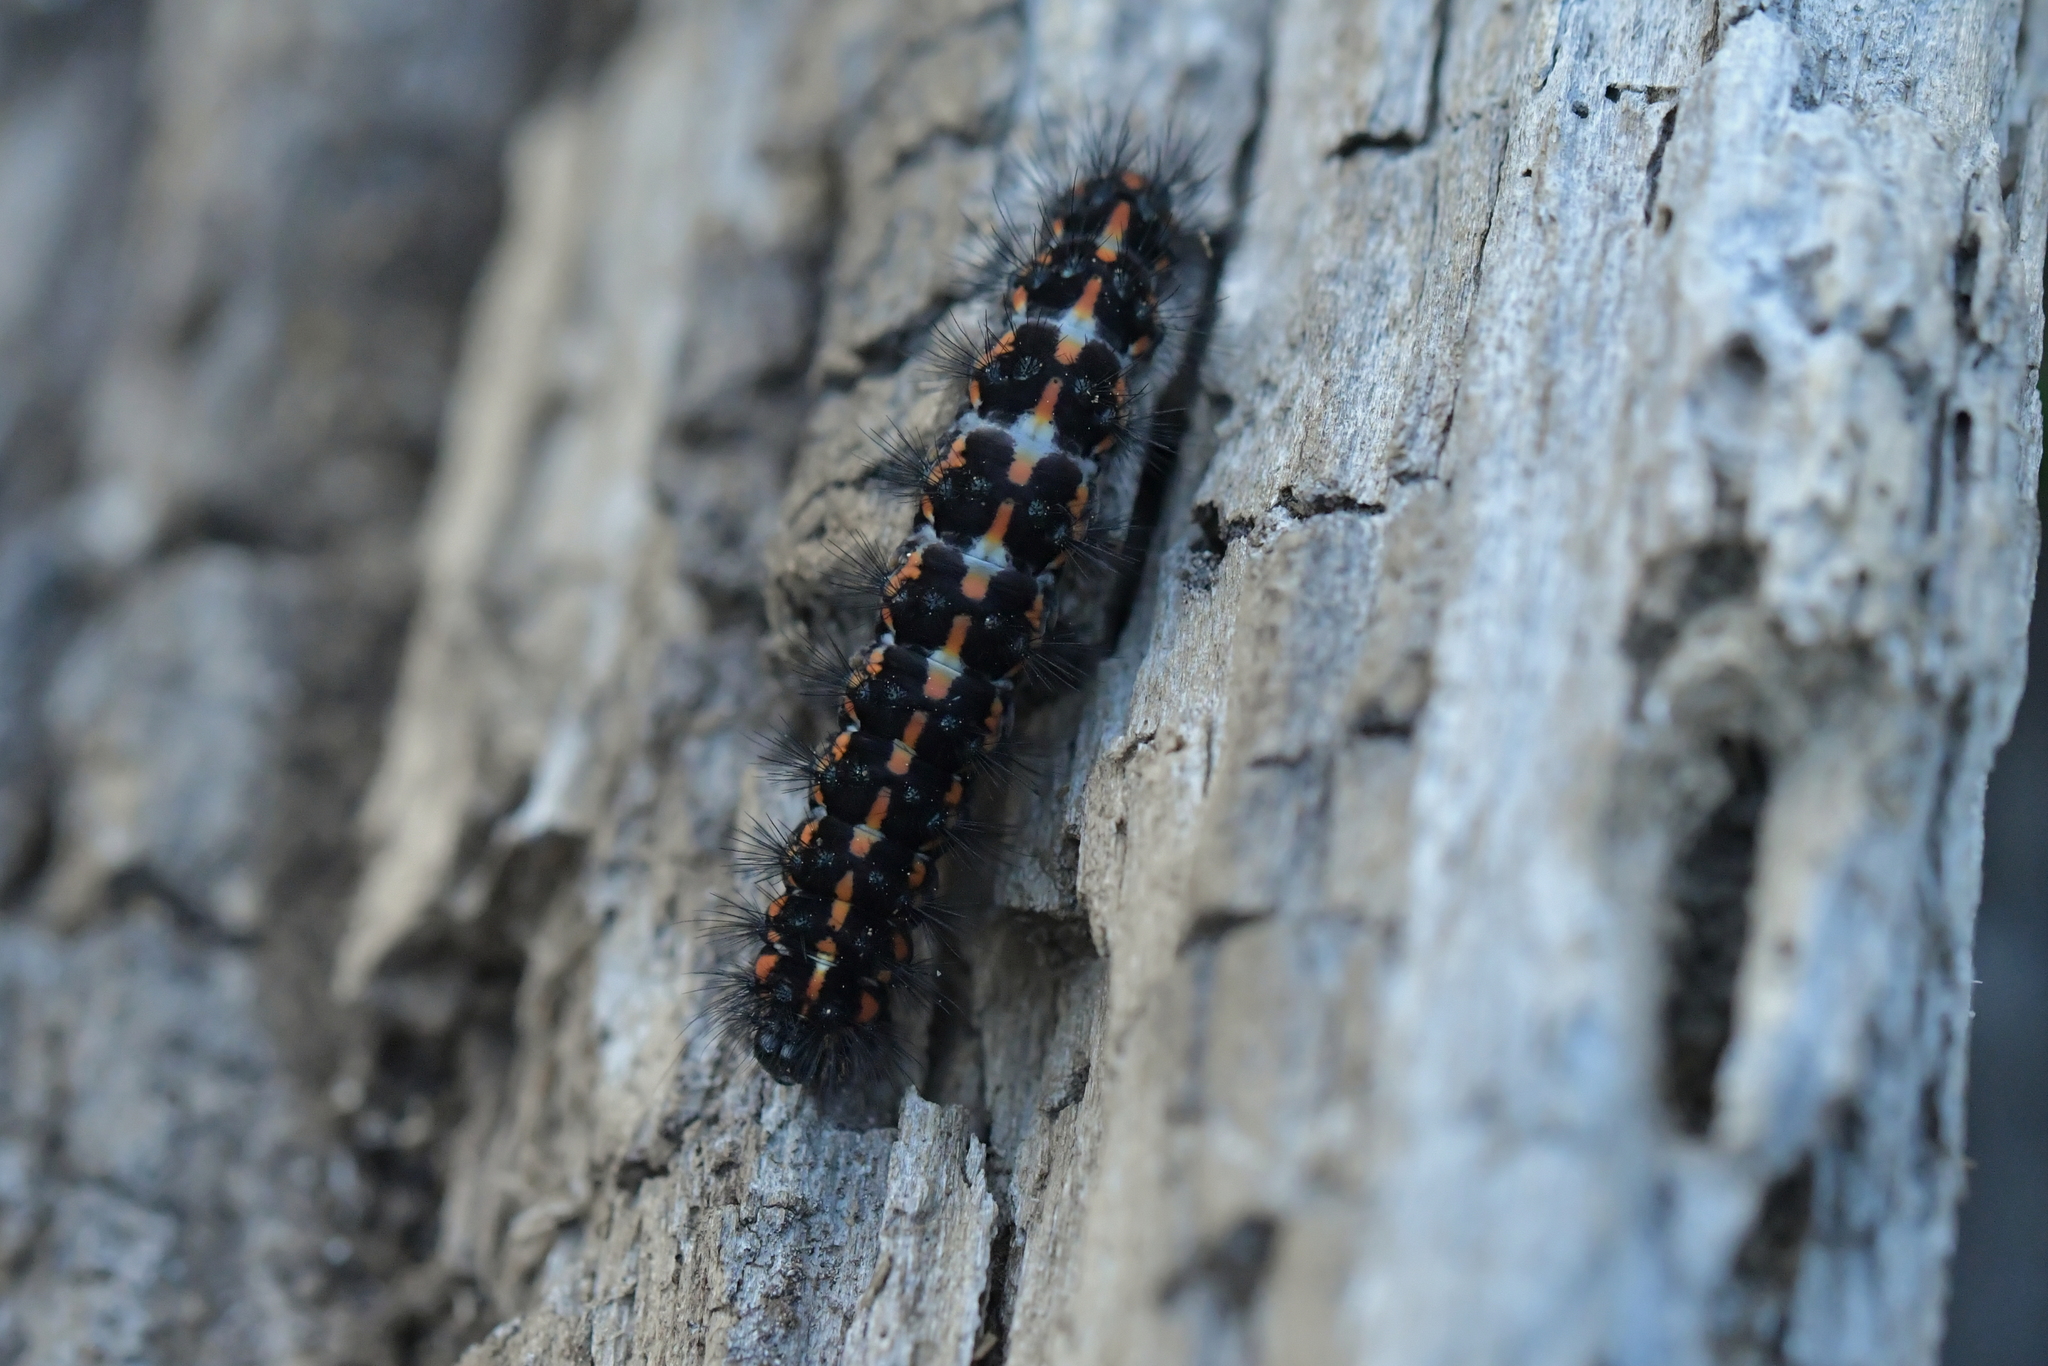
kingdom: Animalia
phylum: Arthropoda
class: Insecta
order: Lepidoptera
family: Erebidae
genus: Nyctemera
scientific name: Nyctemera annulatum
